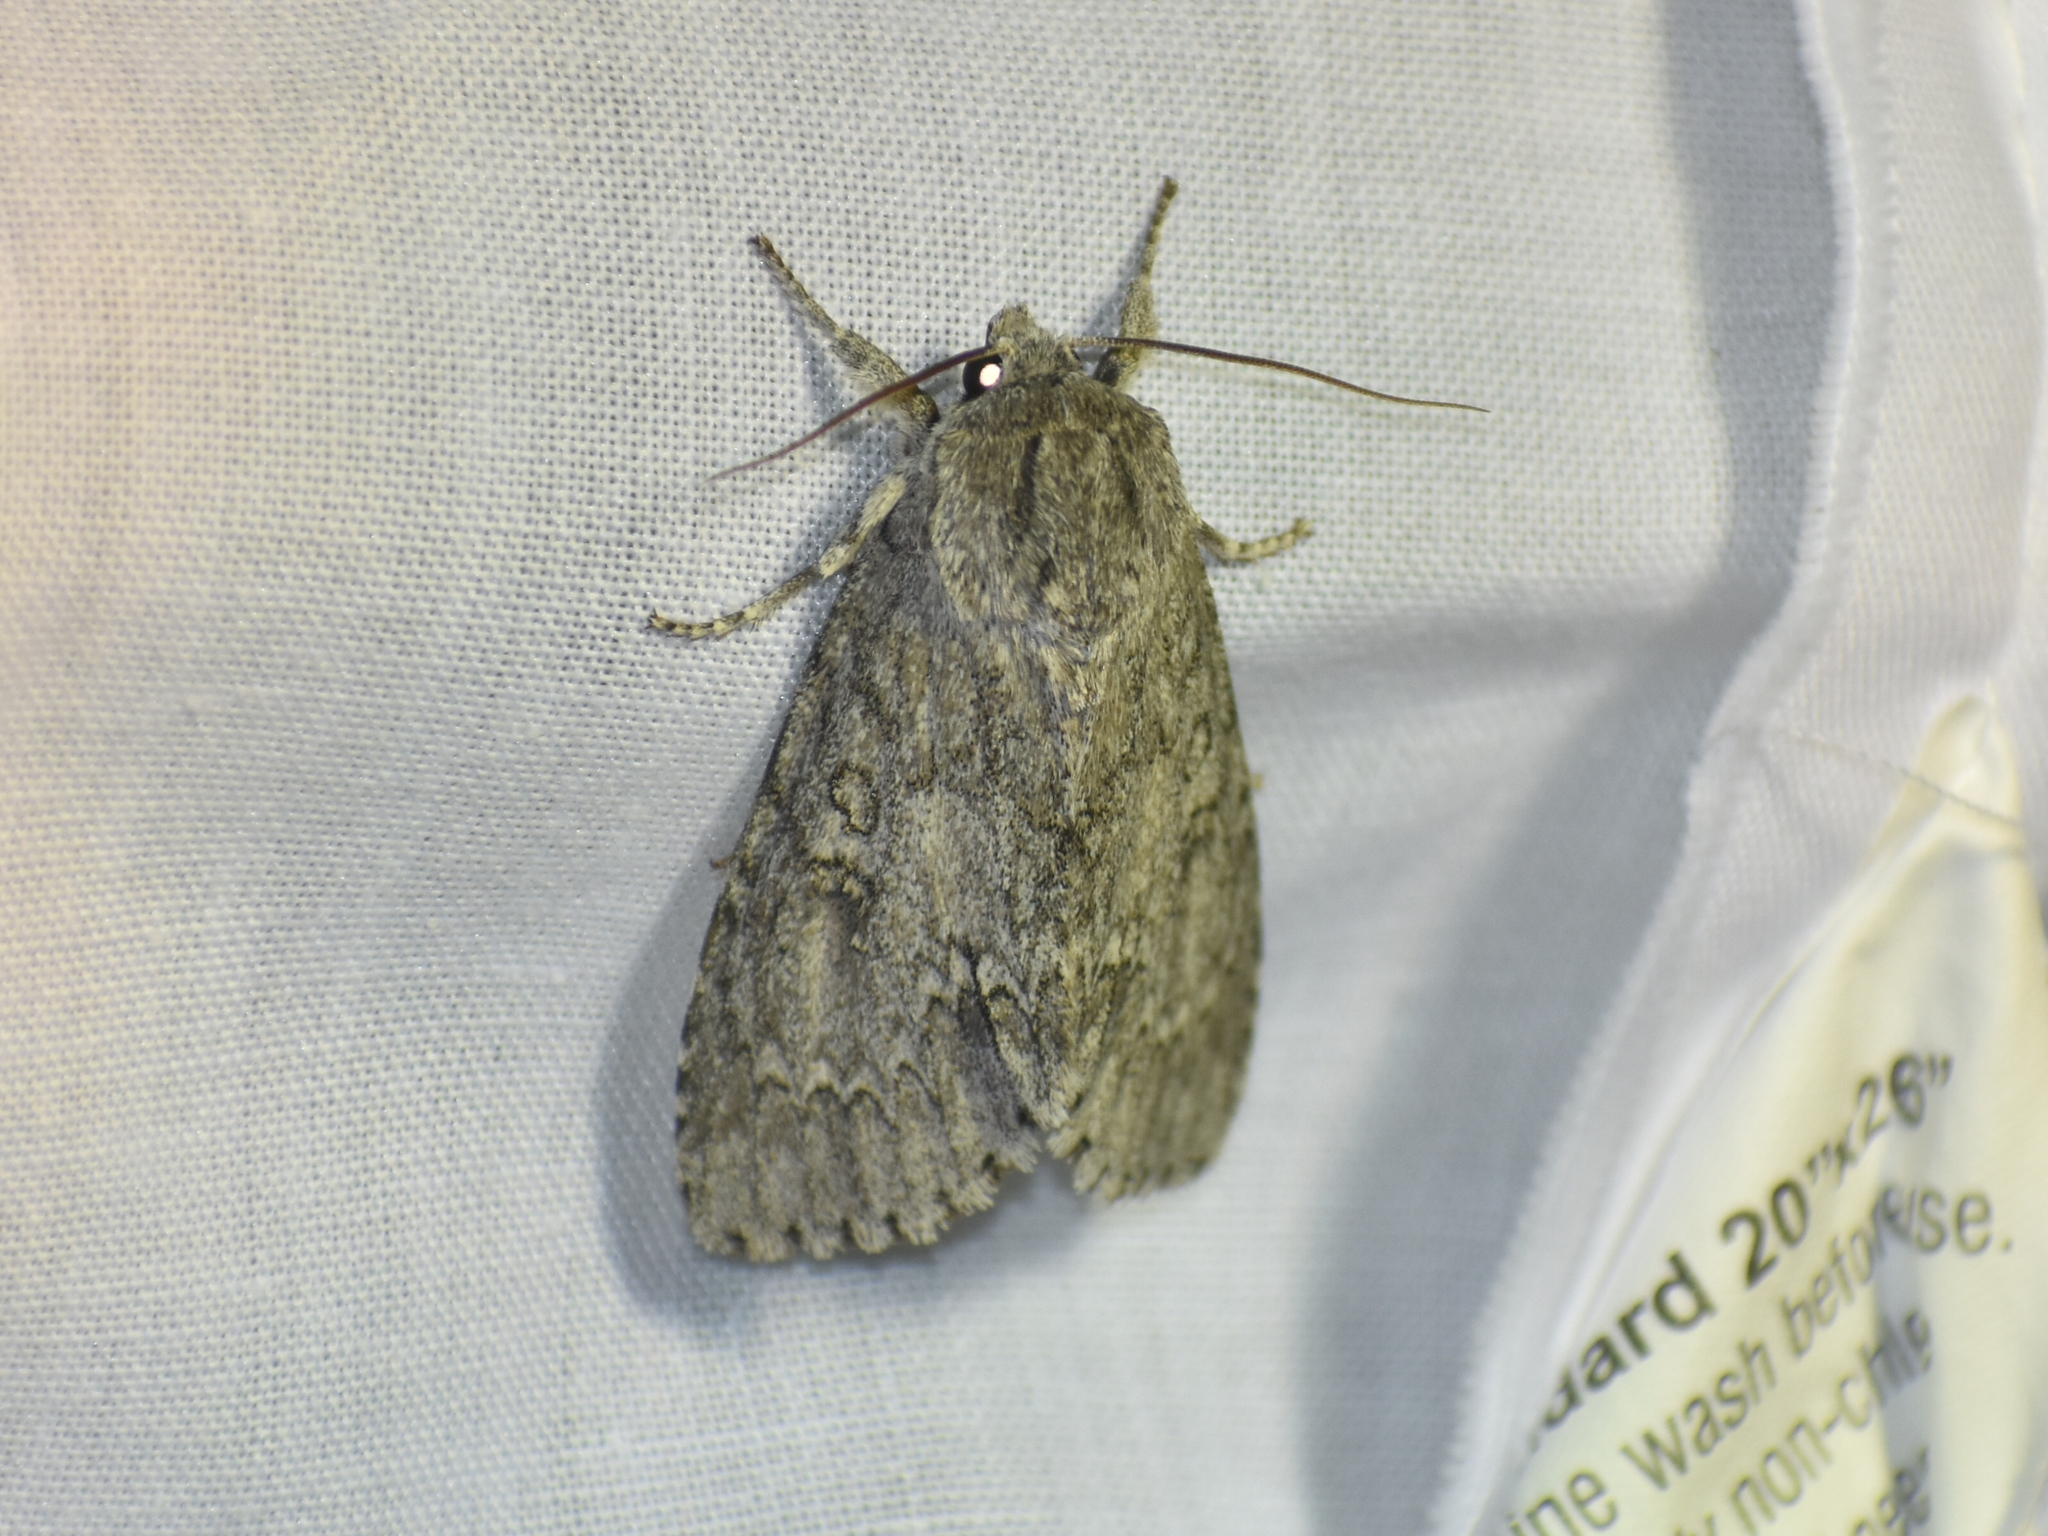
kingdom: Animalia
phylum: Arthropoda
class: Insecta
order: Lepidoptera
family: Noctuidae
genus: Acronicta
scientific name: Acronicta americana
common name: American dagger
